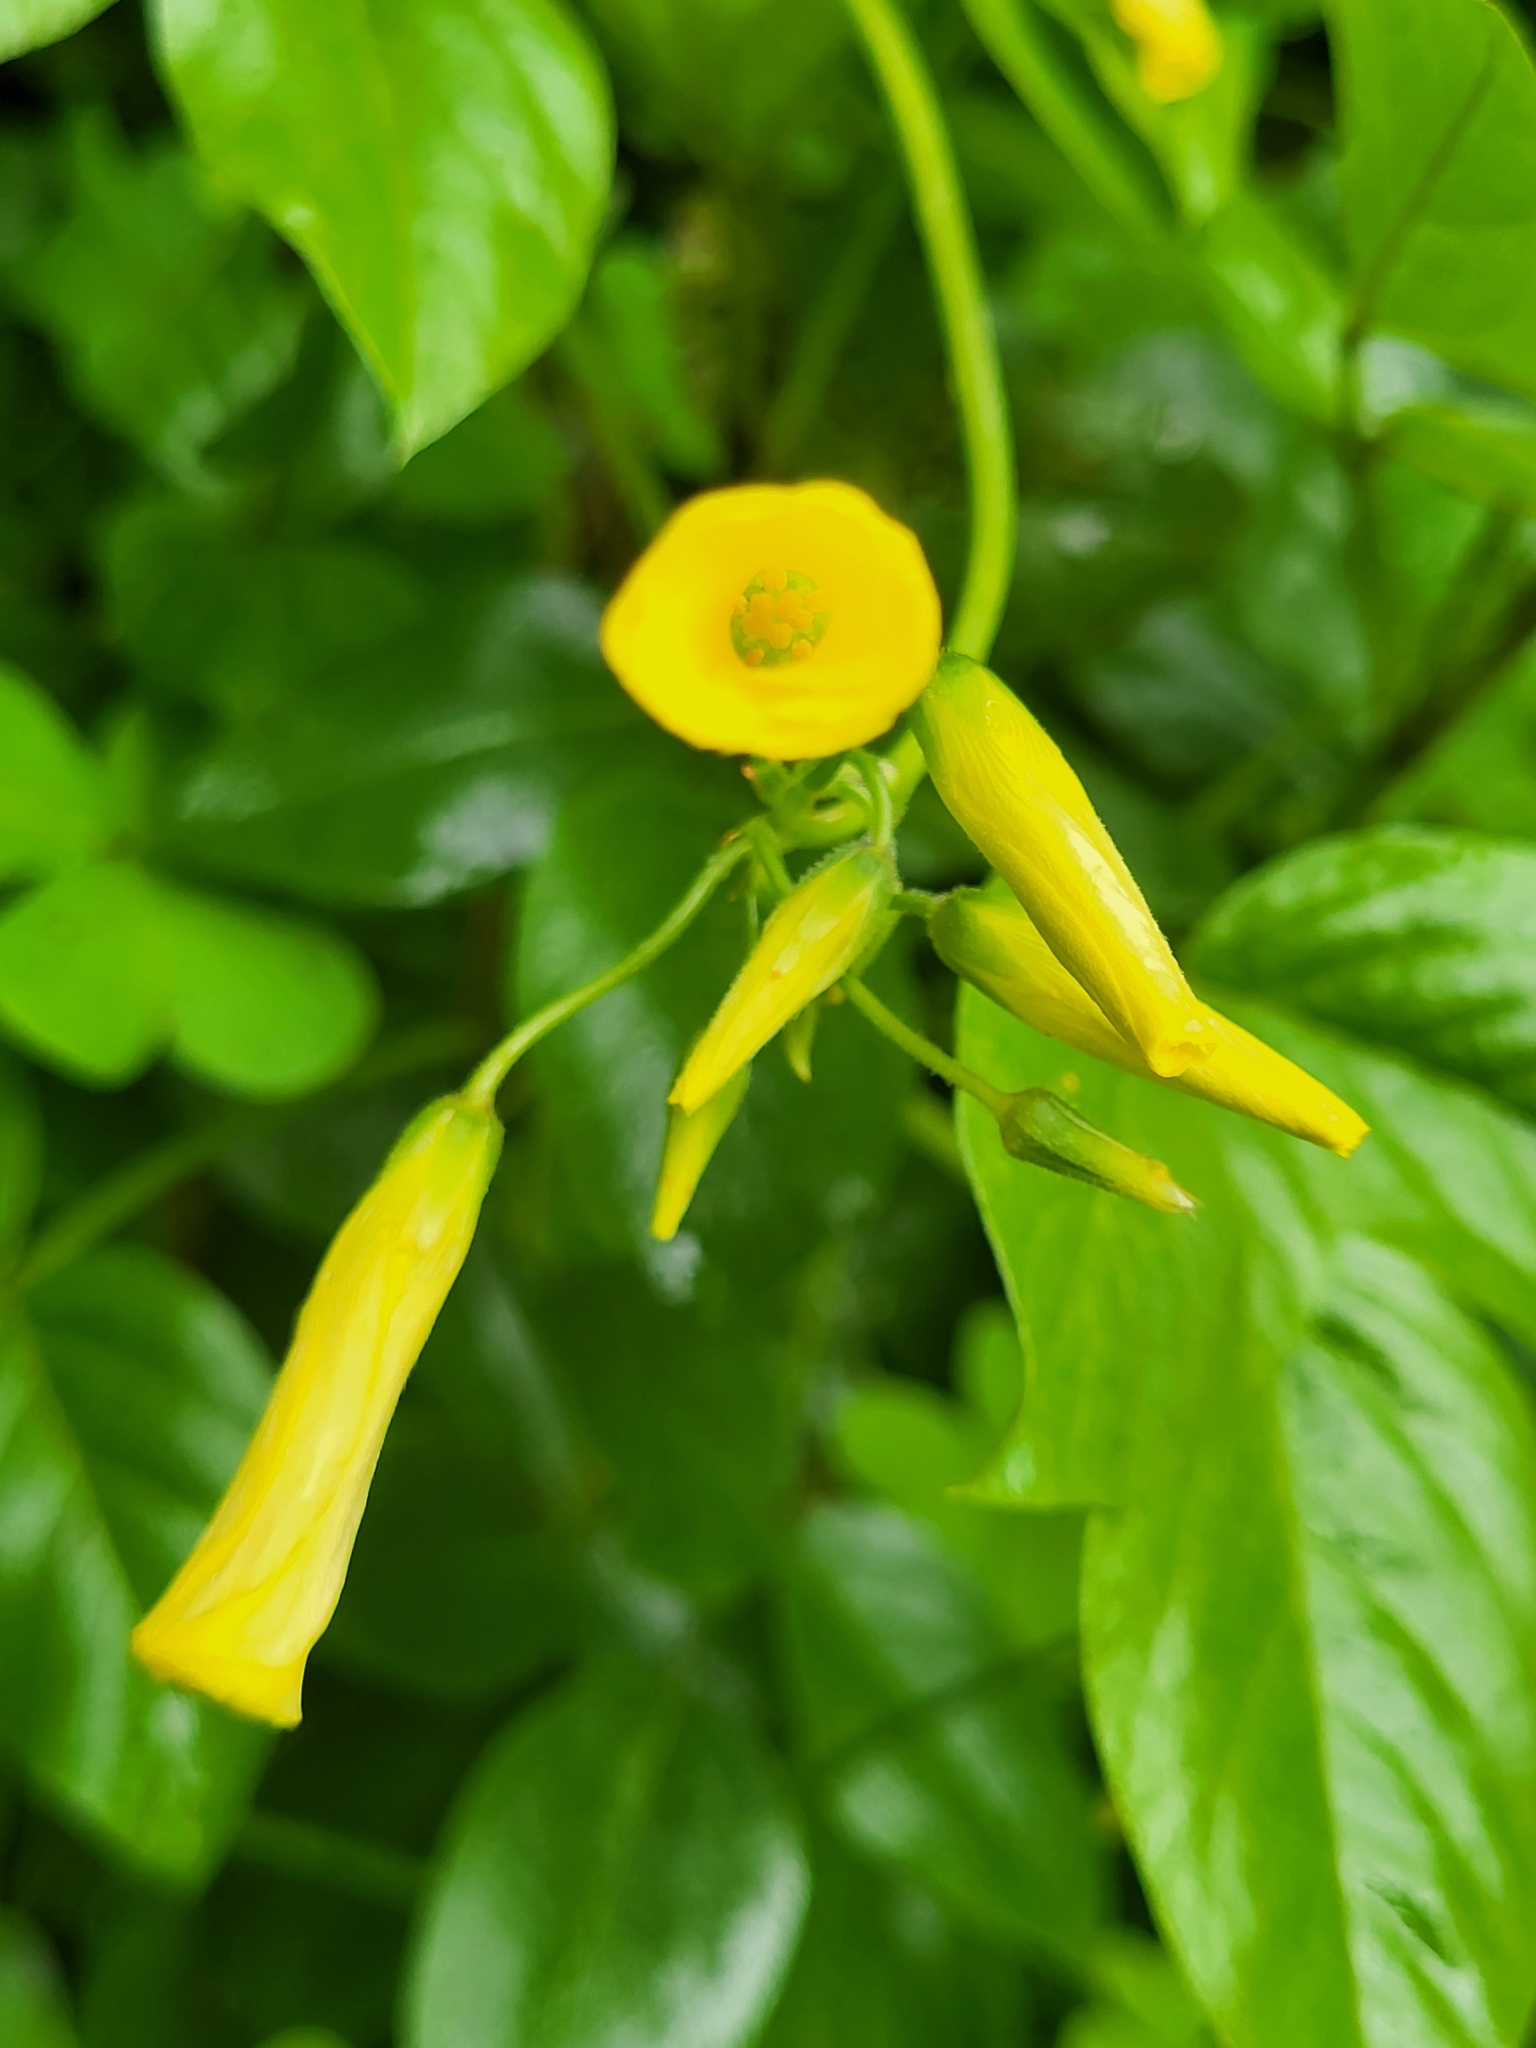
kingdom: Plantae
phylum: Tracheophyta
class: Magnoliopsida
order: Oxalidales
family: Oxalidaceae
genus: Oxalis
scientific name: Oxalis pes-caprae
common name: Bermuda-buttercup
